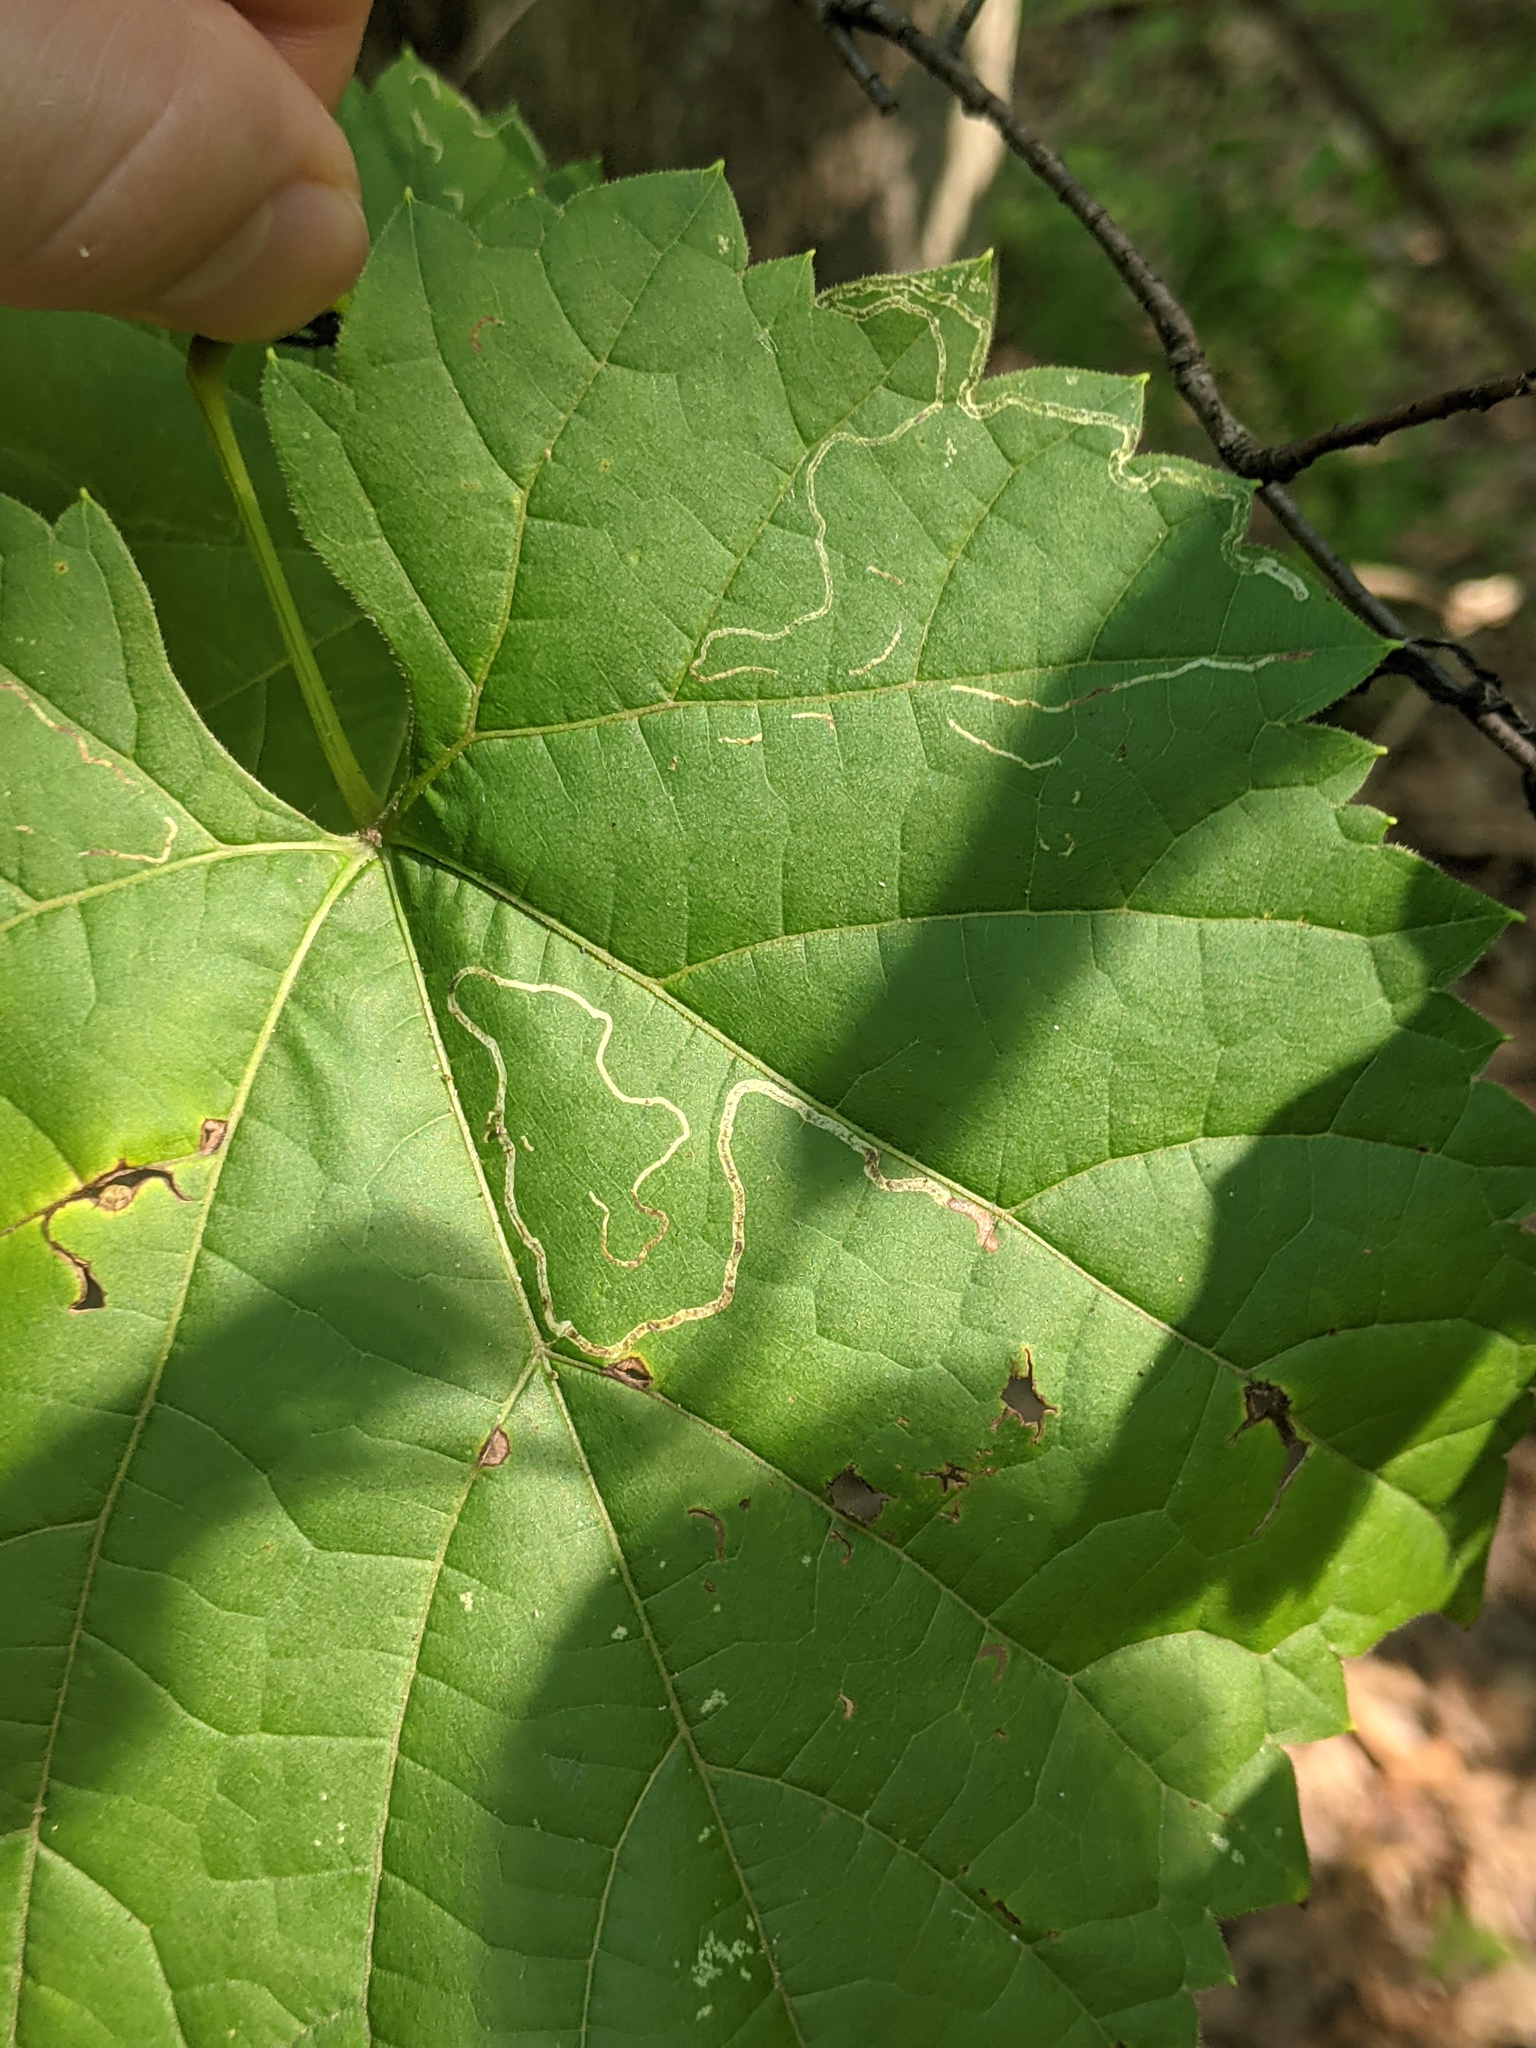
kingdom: Animalia
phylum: Arthropoda
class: Insecta
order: Lepidoptera
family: Gracillariidae
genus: Phyllocnistis
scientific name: Phyllocnistis vitifoliella
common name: Grape leaf-miner moth
